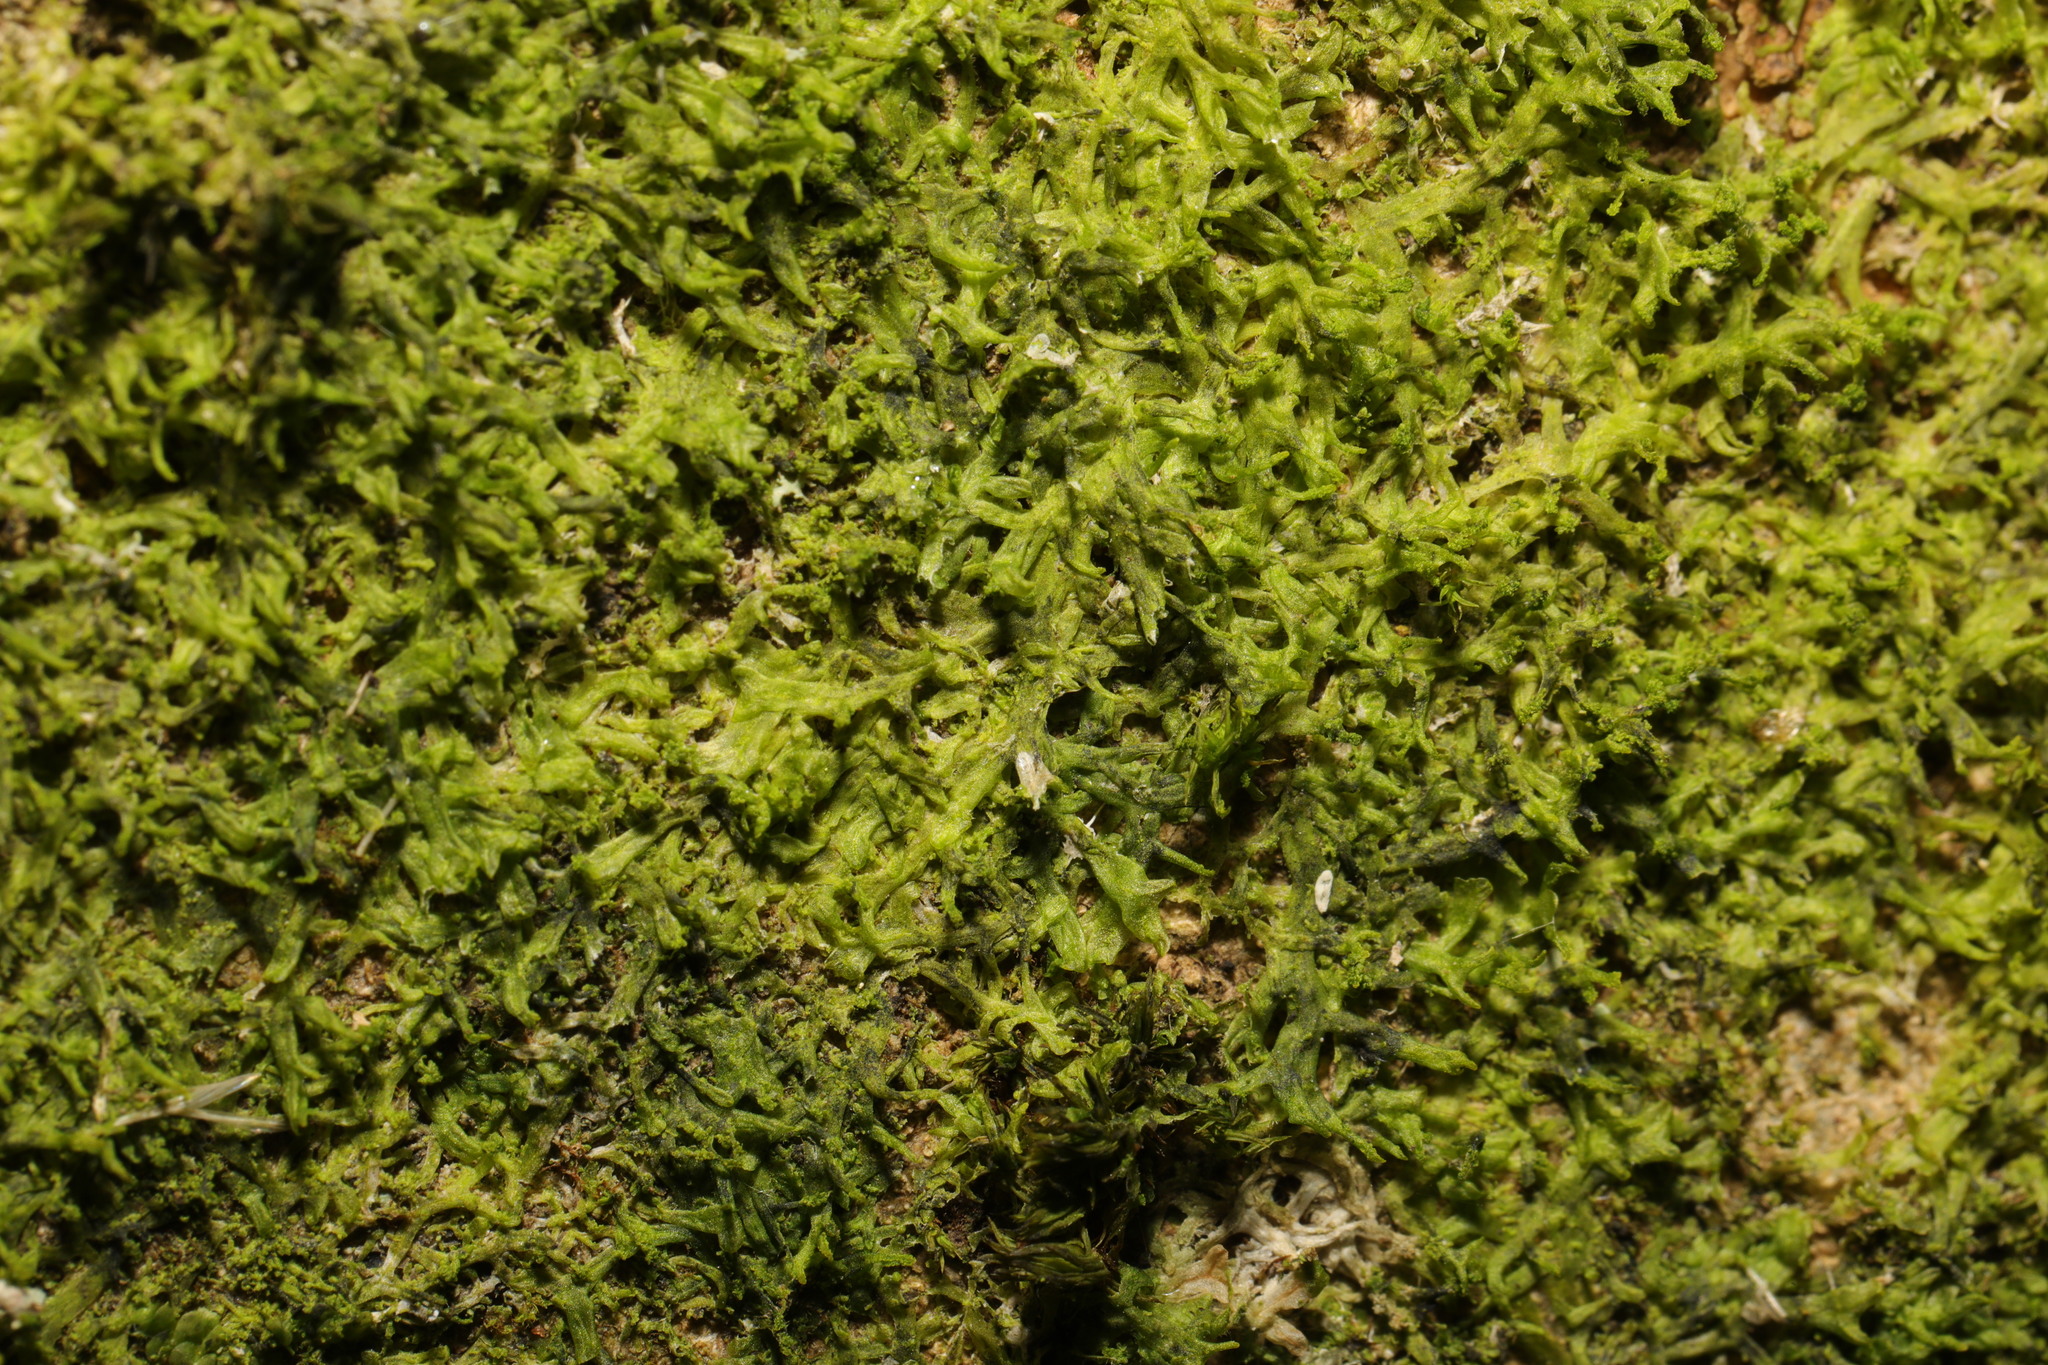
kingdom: Plantae
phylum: Marchantiophyta
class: Jungermanniopsida
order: Metzgeriales
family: Metzgeriaceae
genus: Metzgeria
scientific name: Metzgeria violacea
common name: Blueish veilwort
